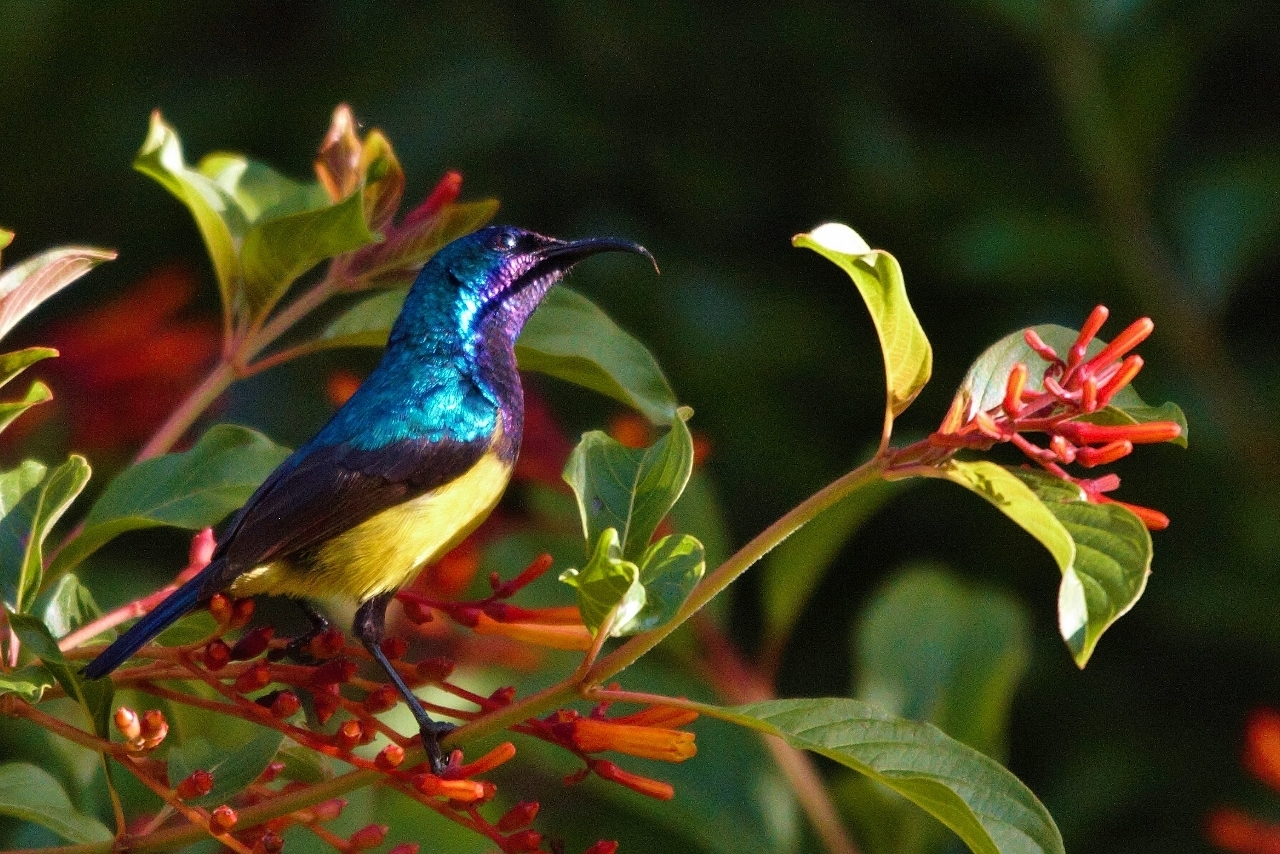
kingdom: Animalia
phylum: Chordata
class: Aves
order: Passeriformes
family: Nectariniidae
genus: Cinnyris
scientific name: Cinnyris venustus
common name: Variable sunbird
